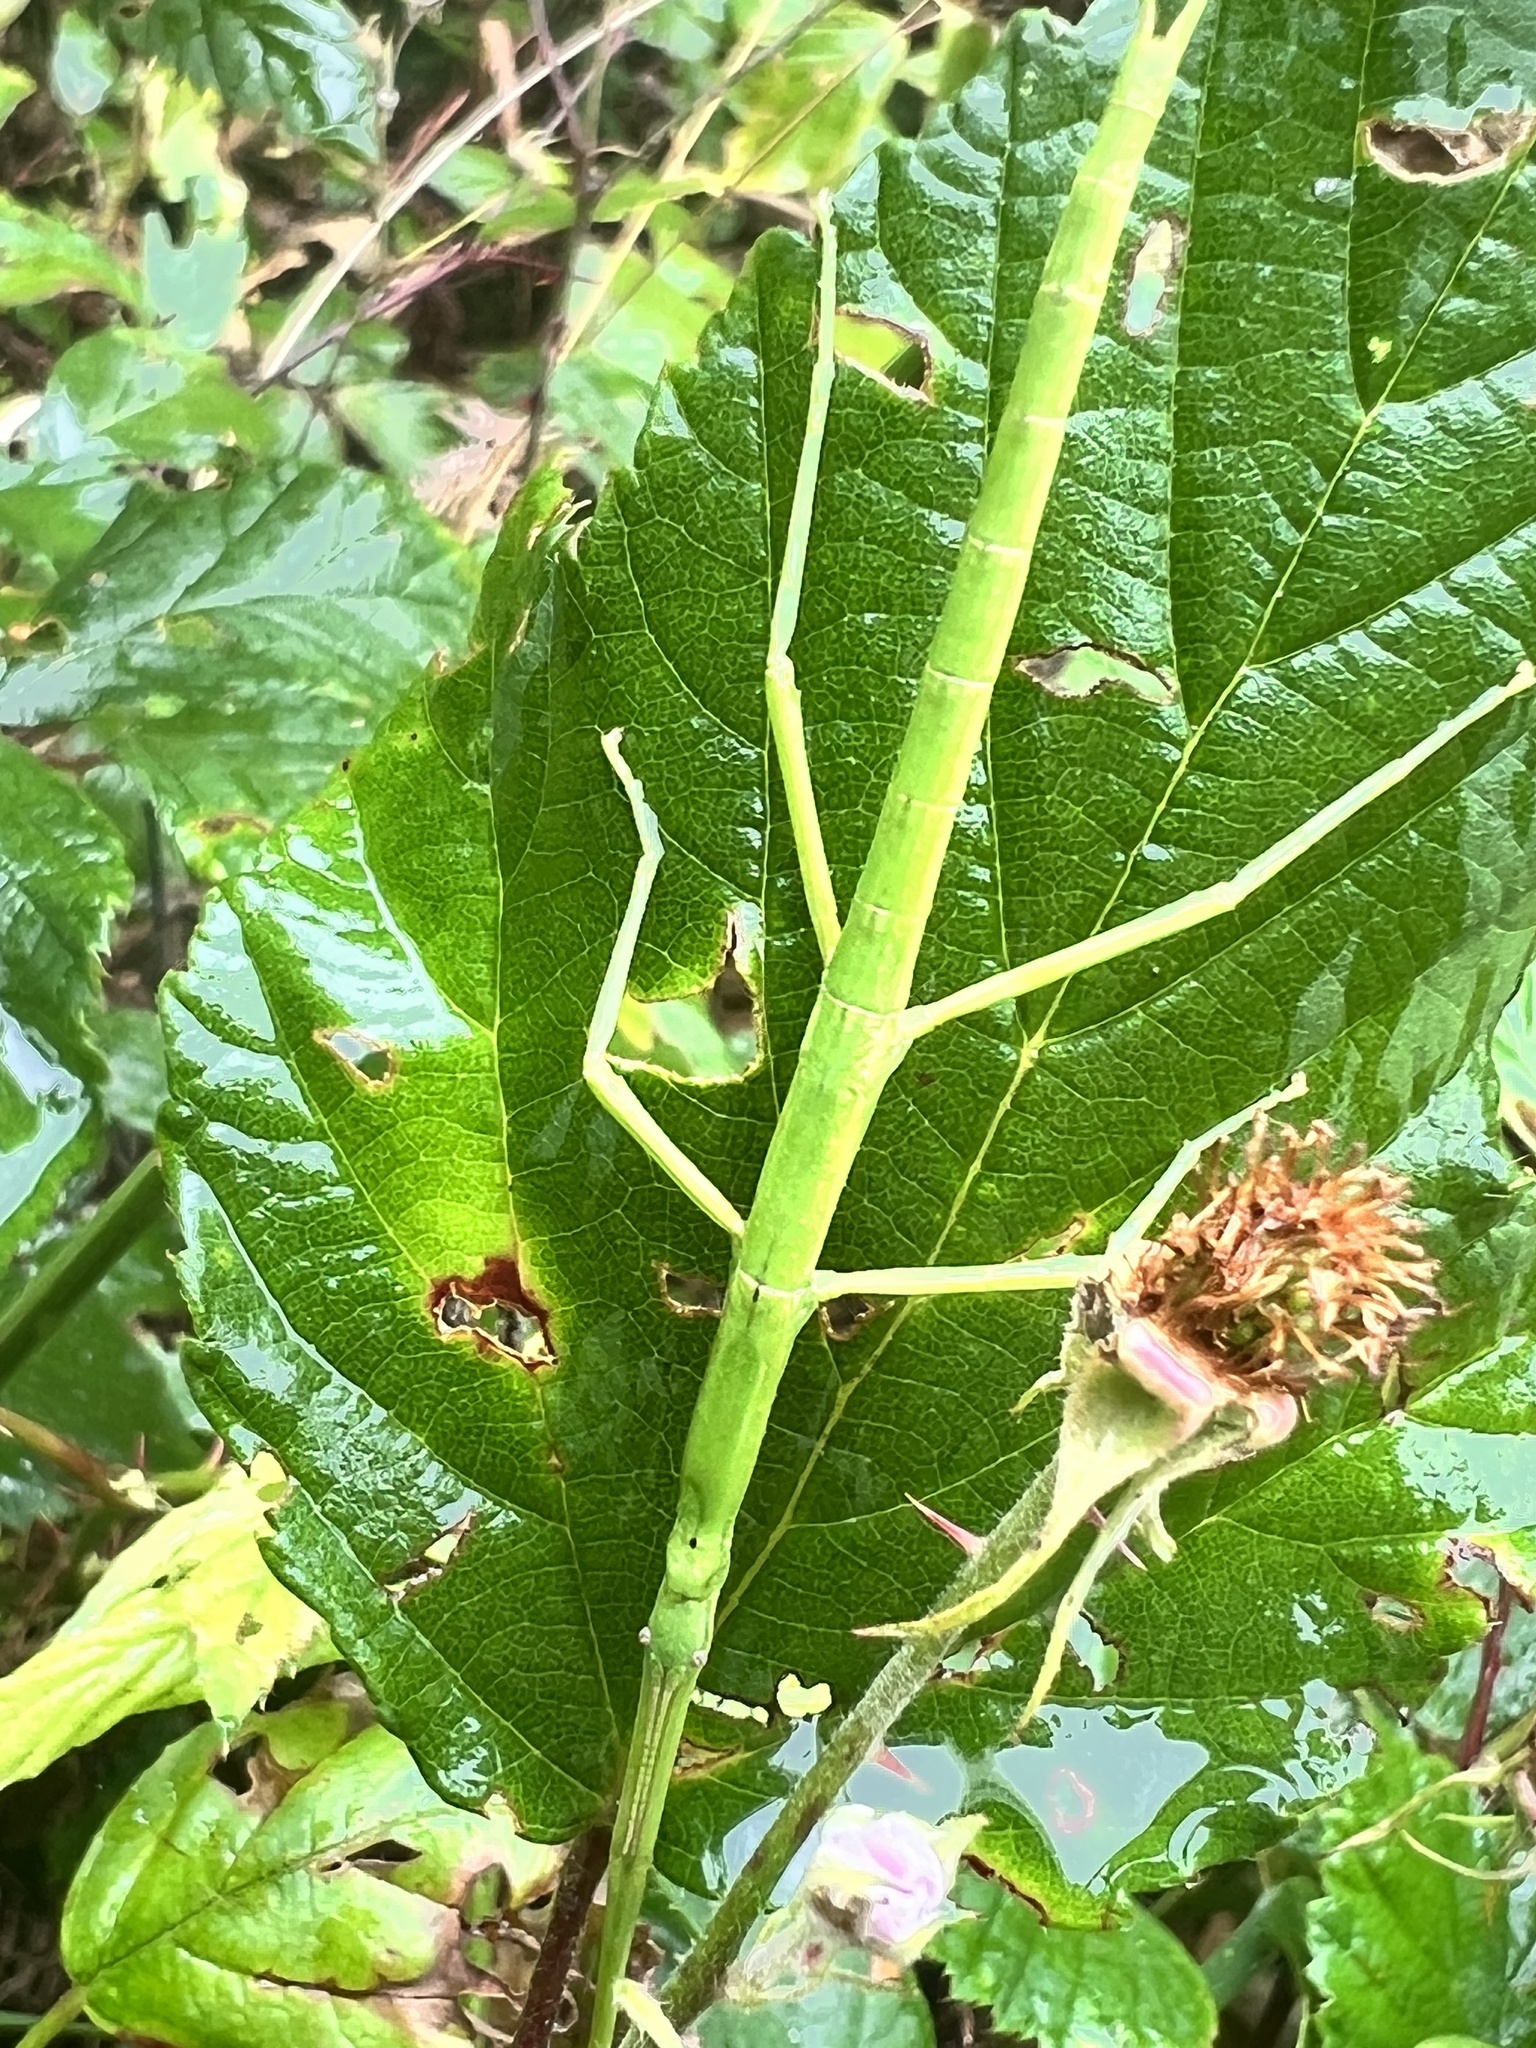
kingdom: Animalia
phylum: Arthropoda
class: Insecta
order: Phasmida
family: Phasmatidae
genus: Clitarchus
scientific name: Clitarchus hookeri
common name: Smooth stick insect
